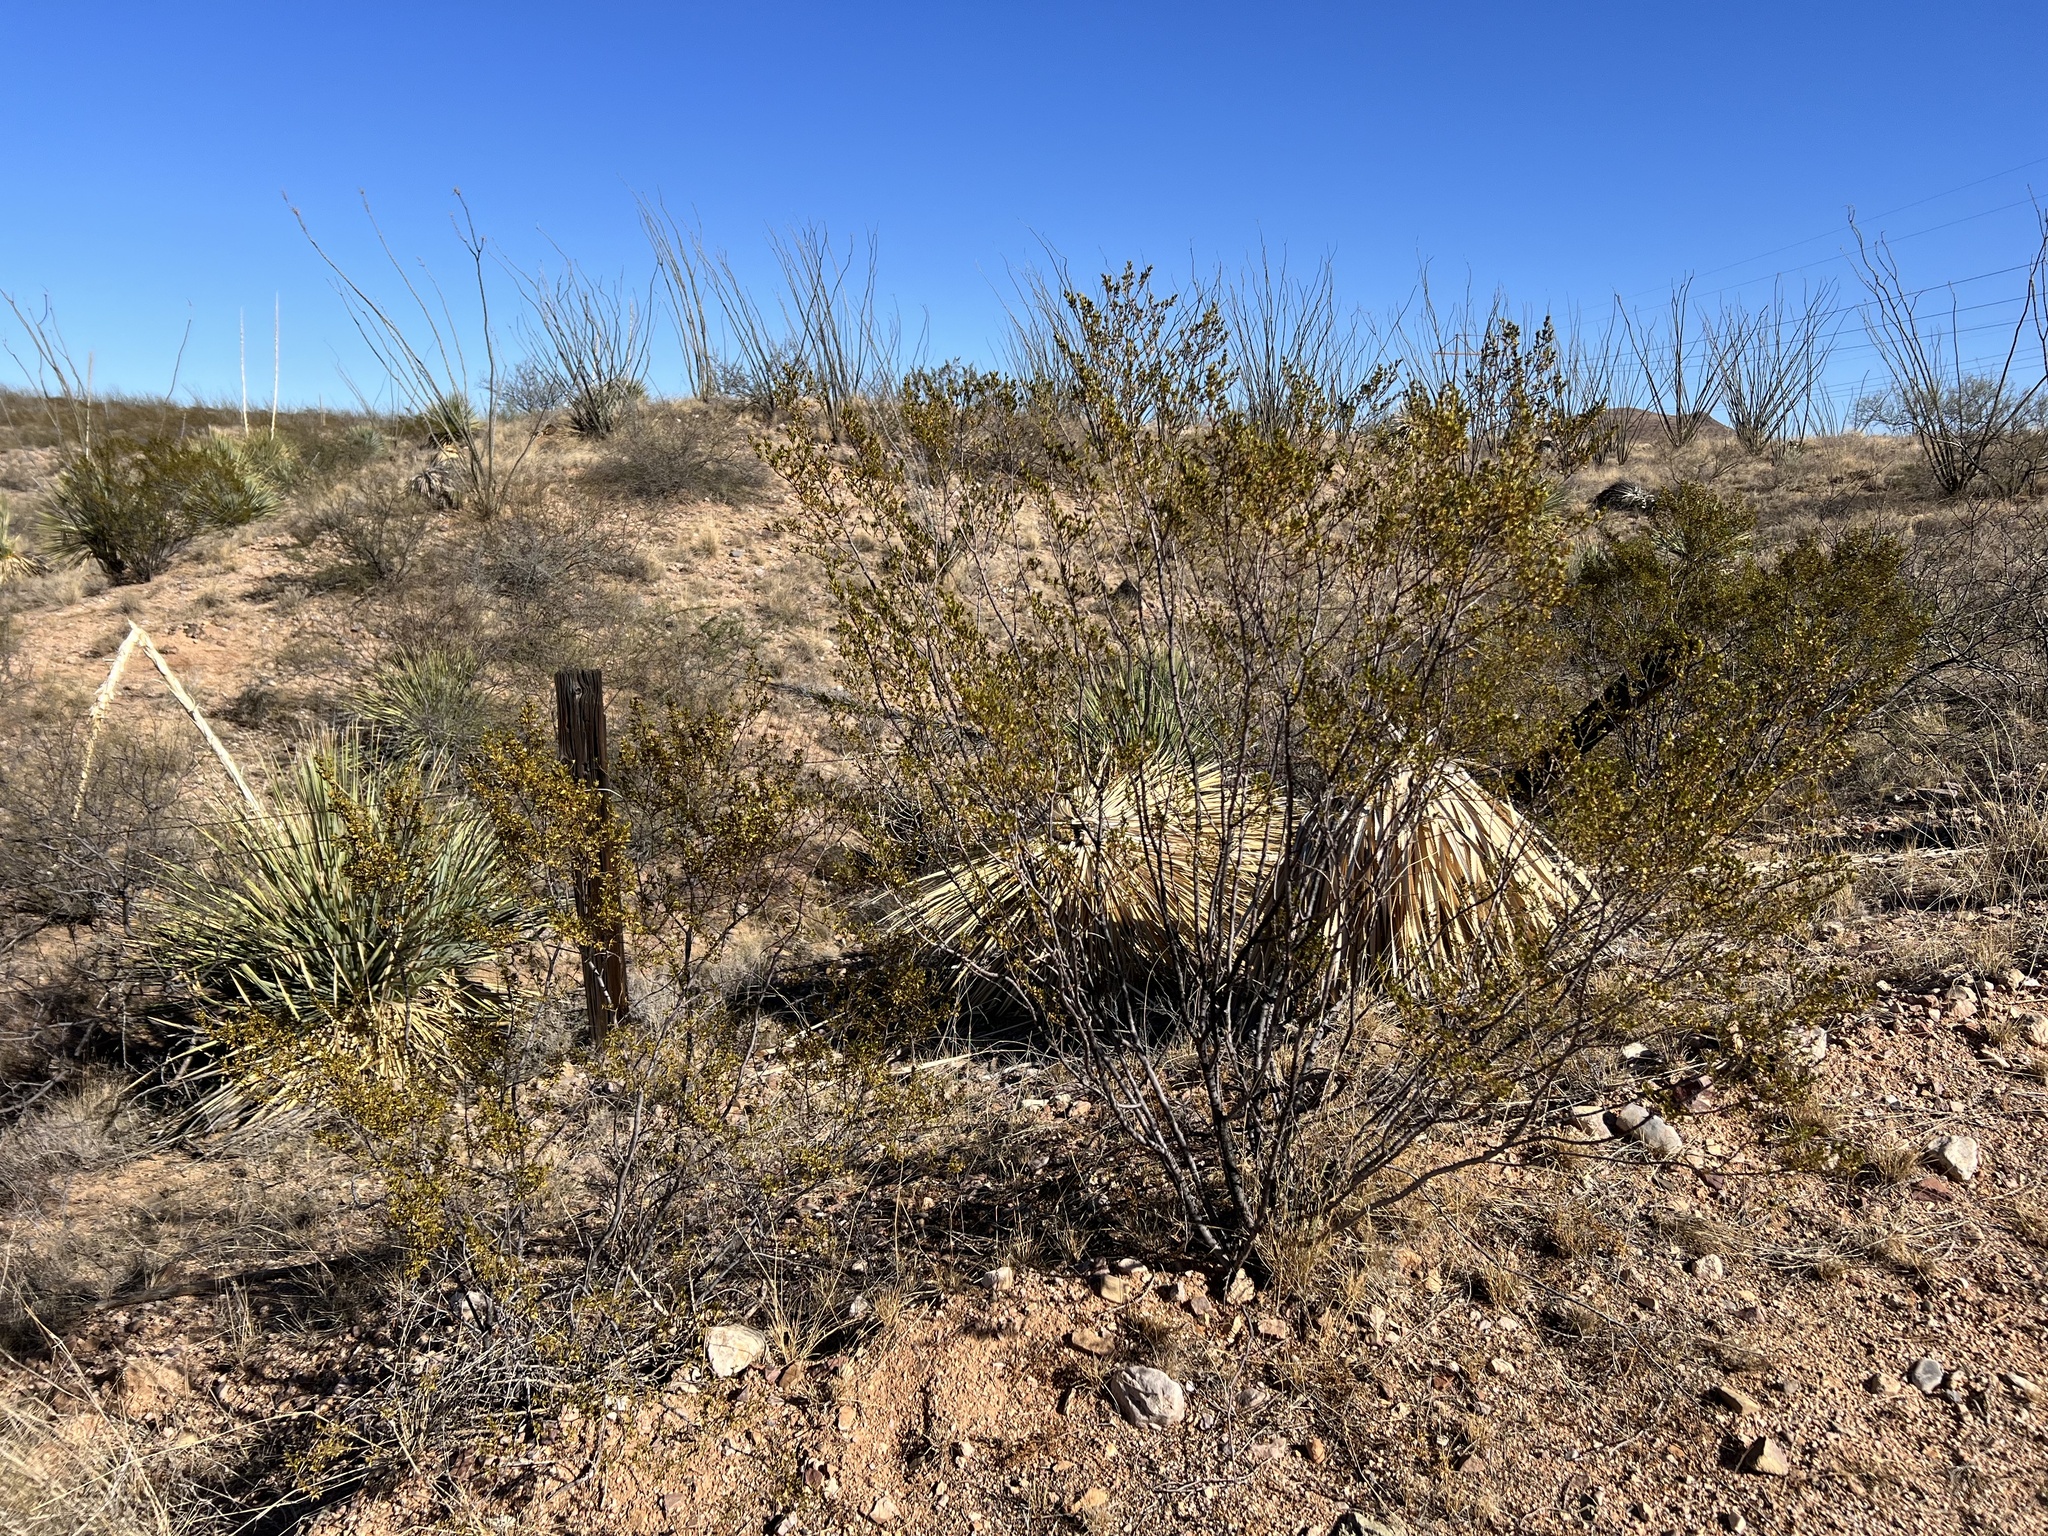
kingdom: Plantae
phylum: Tracheophyta
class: Magnoliopsida
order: Zygophyllales
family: Zygophyllaceae
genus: Larrea
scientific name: Larrea tridentata
